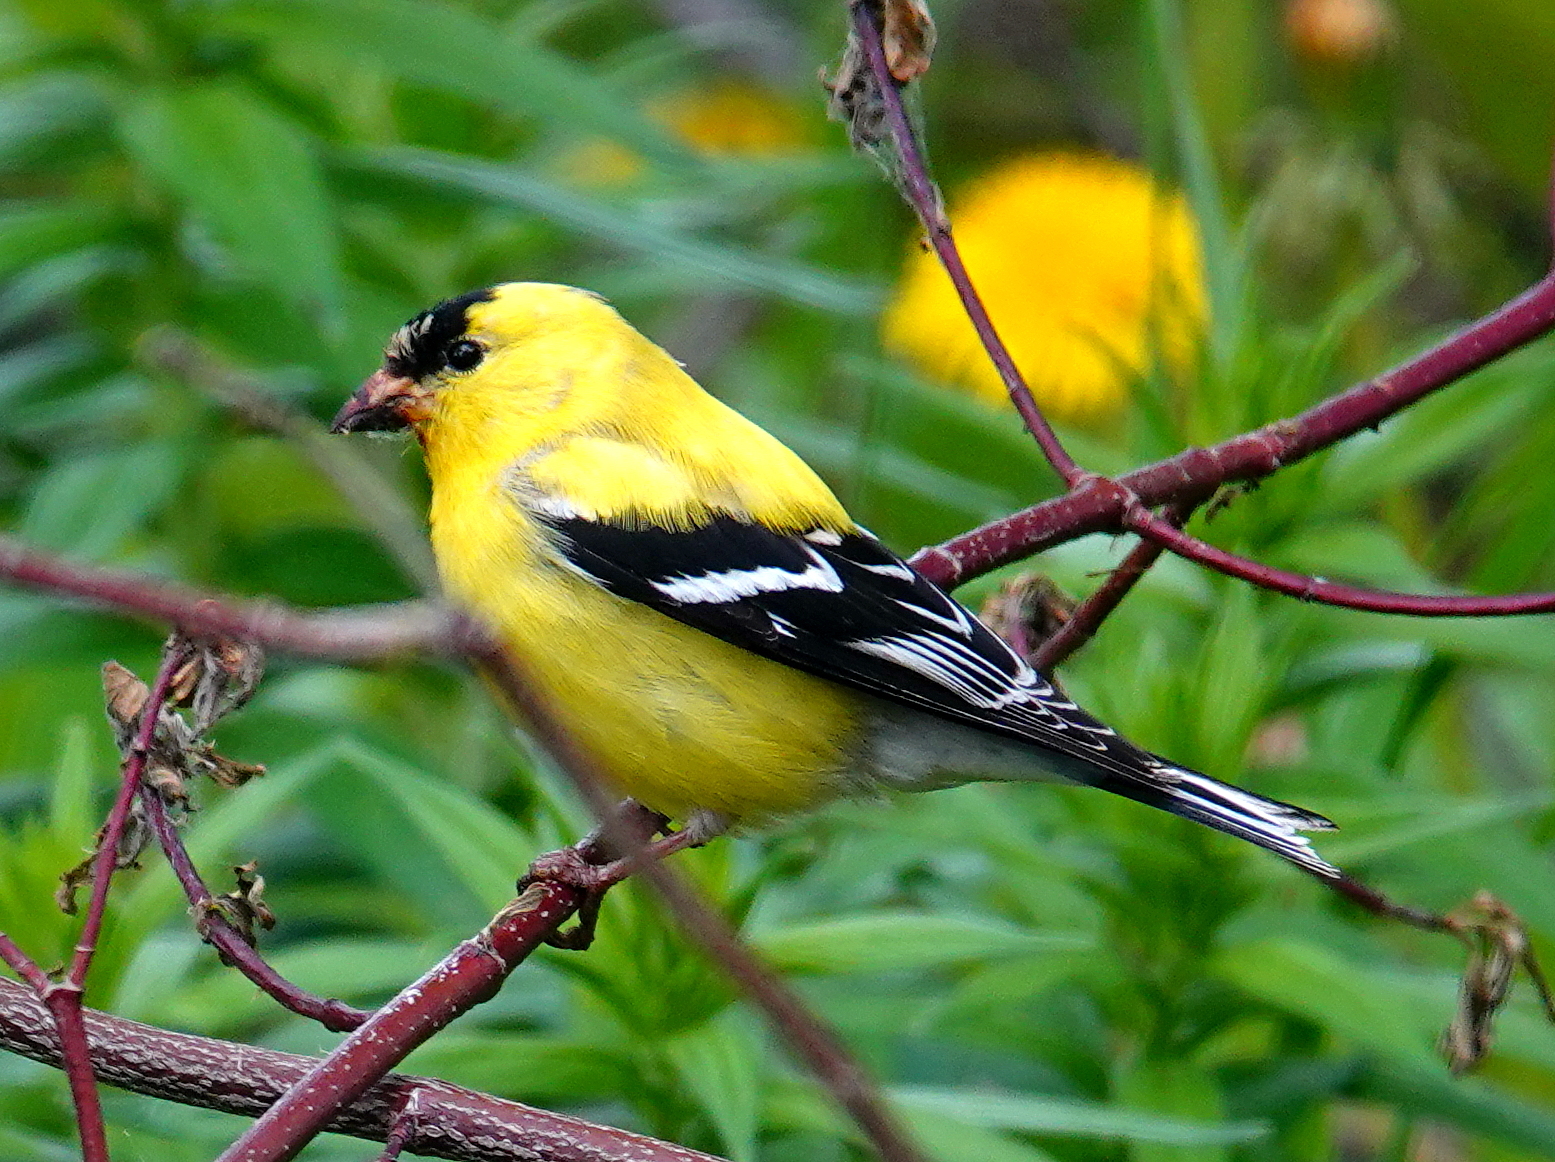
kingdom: Animalia
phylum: Chordata
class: Aves
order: Passeriformes
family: Fringillidae
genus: Spinus
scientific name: Spinus tristis
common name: American goldfinch
